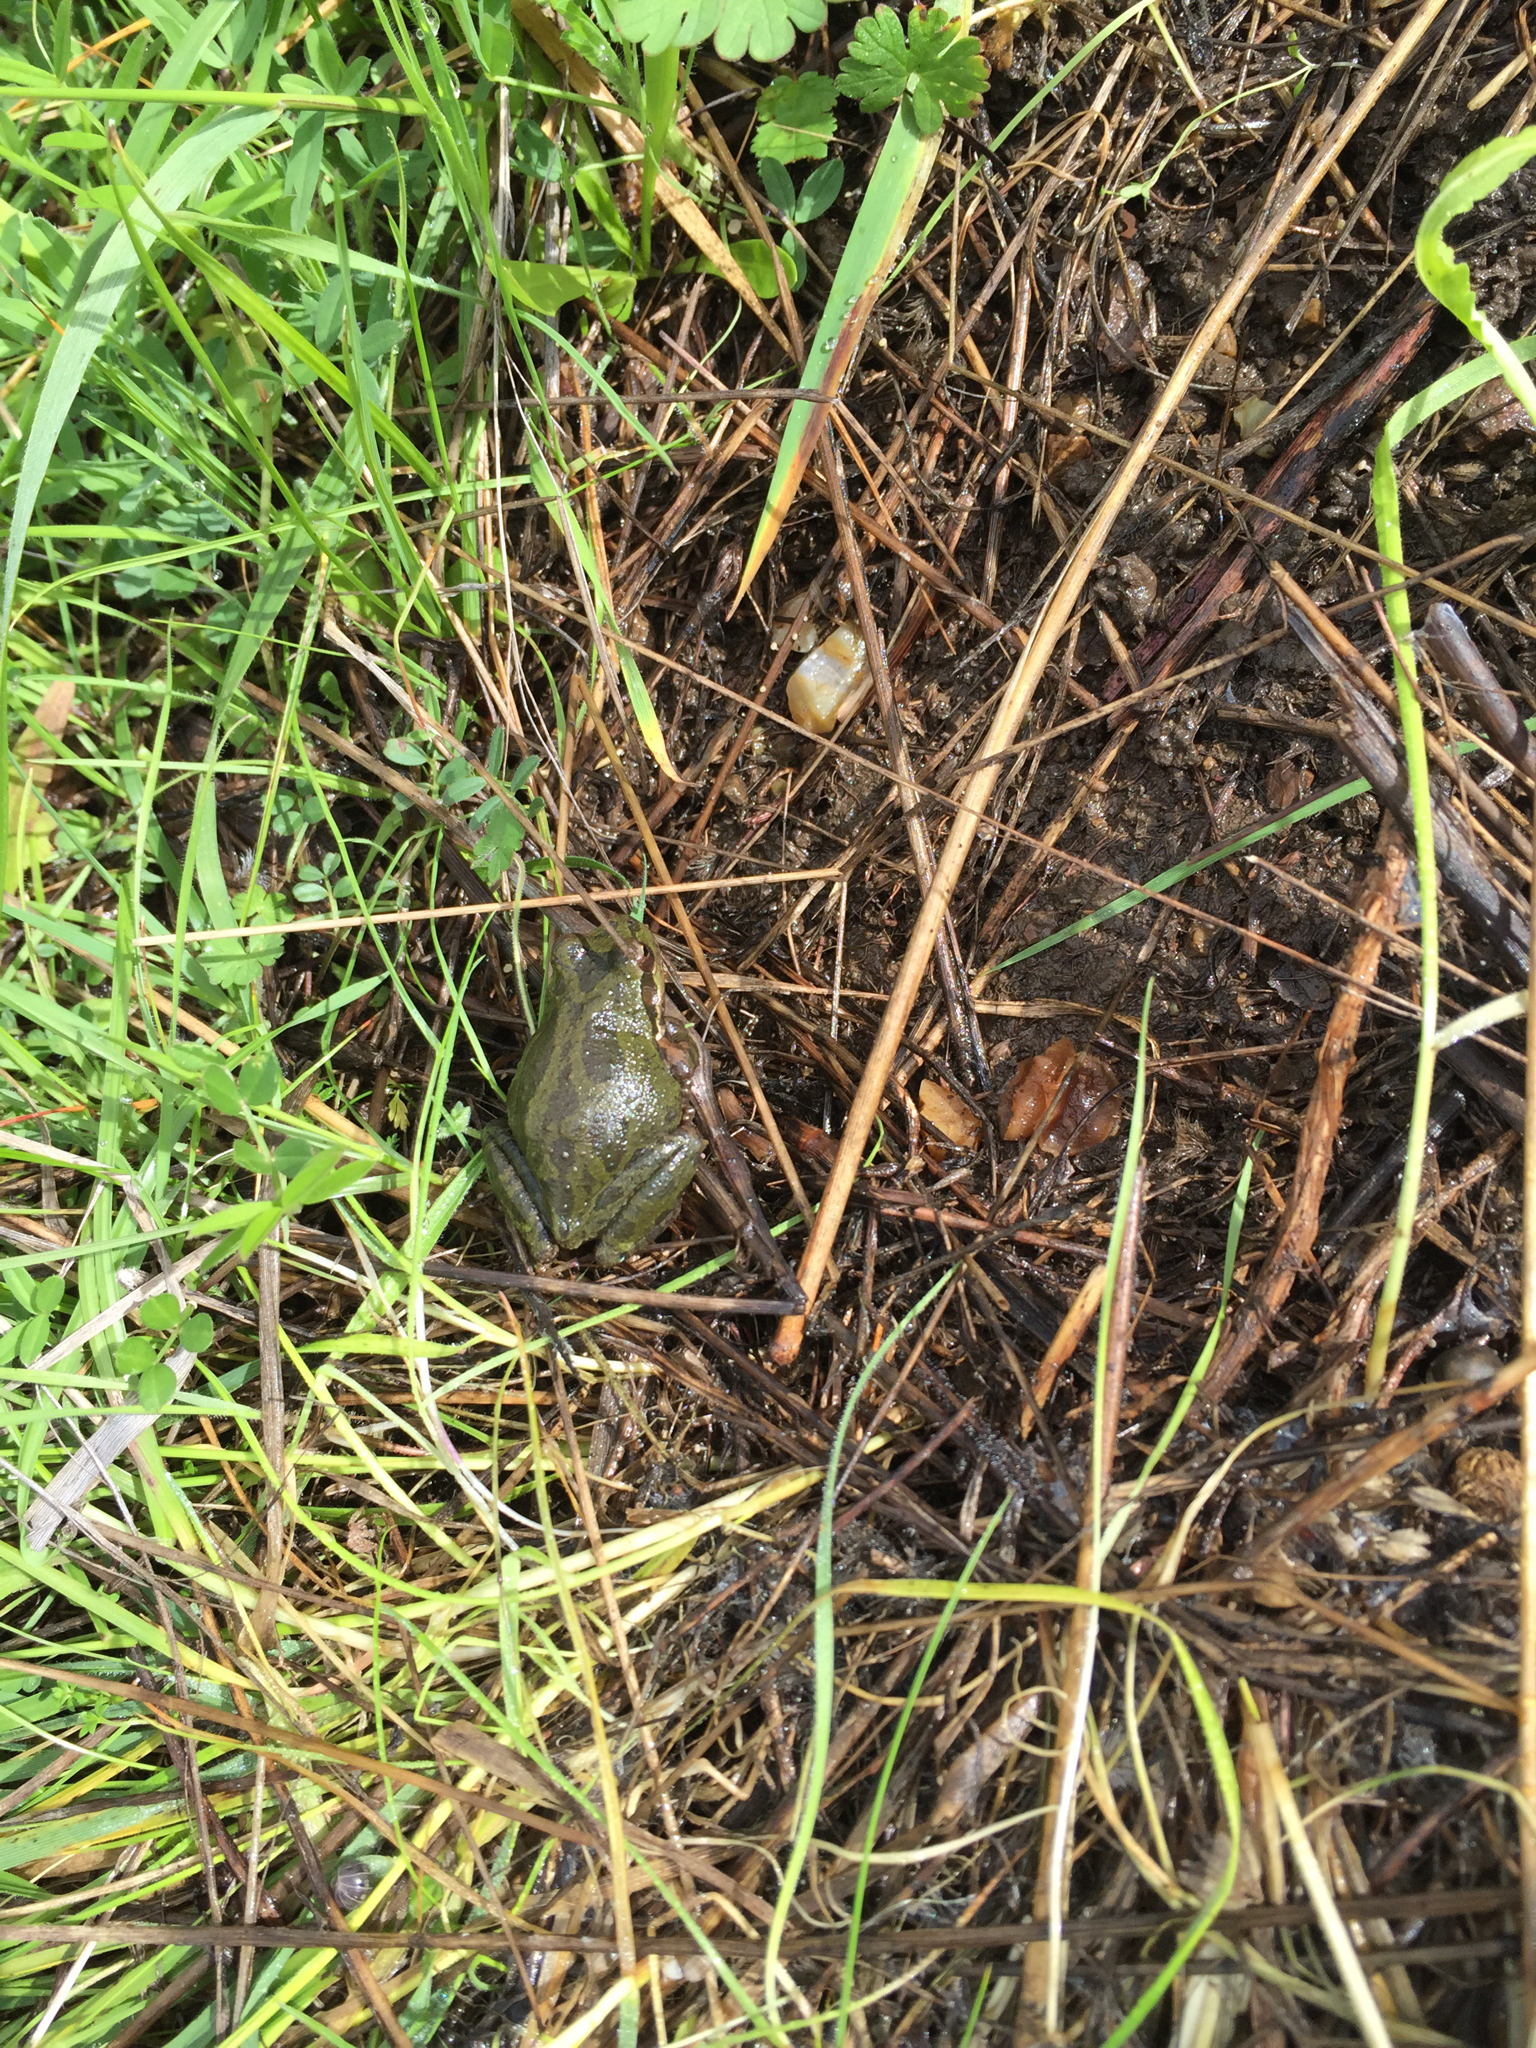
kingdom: Animalia
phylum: Chordata
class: Amphibia
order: Anura
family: Hylidae
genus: Pseudacris
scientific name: Pseudacris regilla
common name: Pacific chorus frog
